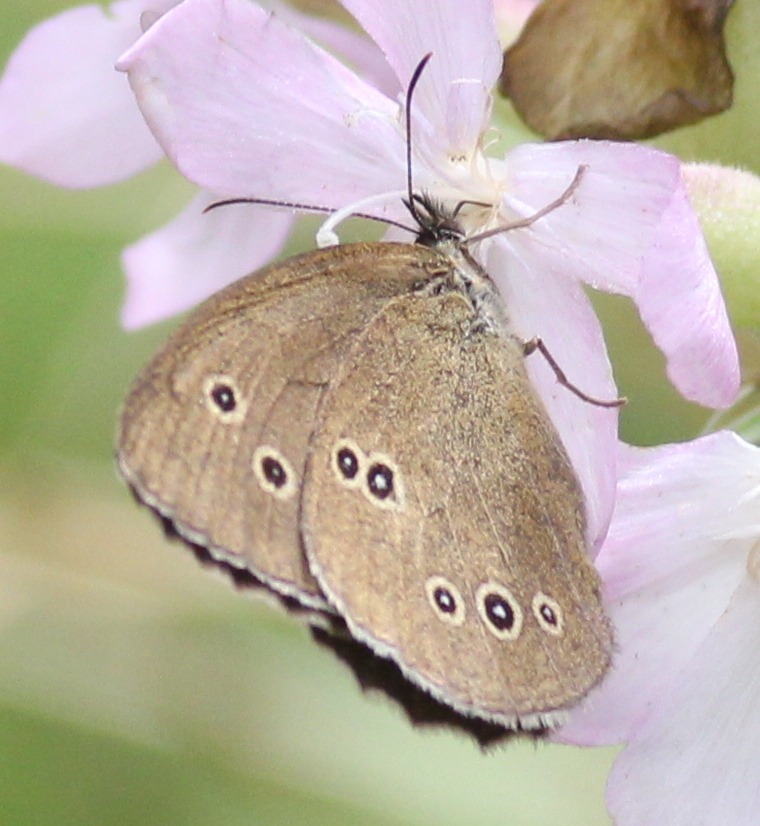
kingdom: Animalia
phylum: Arthropoda
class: Insecta
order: Lepidoptera
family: Nymphalidae
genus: Aphantopus
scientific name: Aphantopus hyperantus
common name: Ringlet
